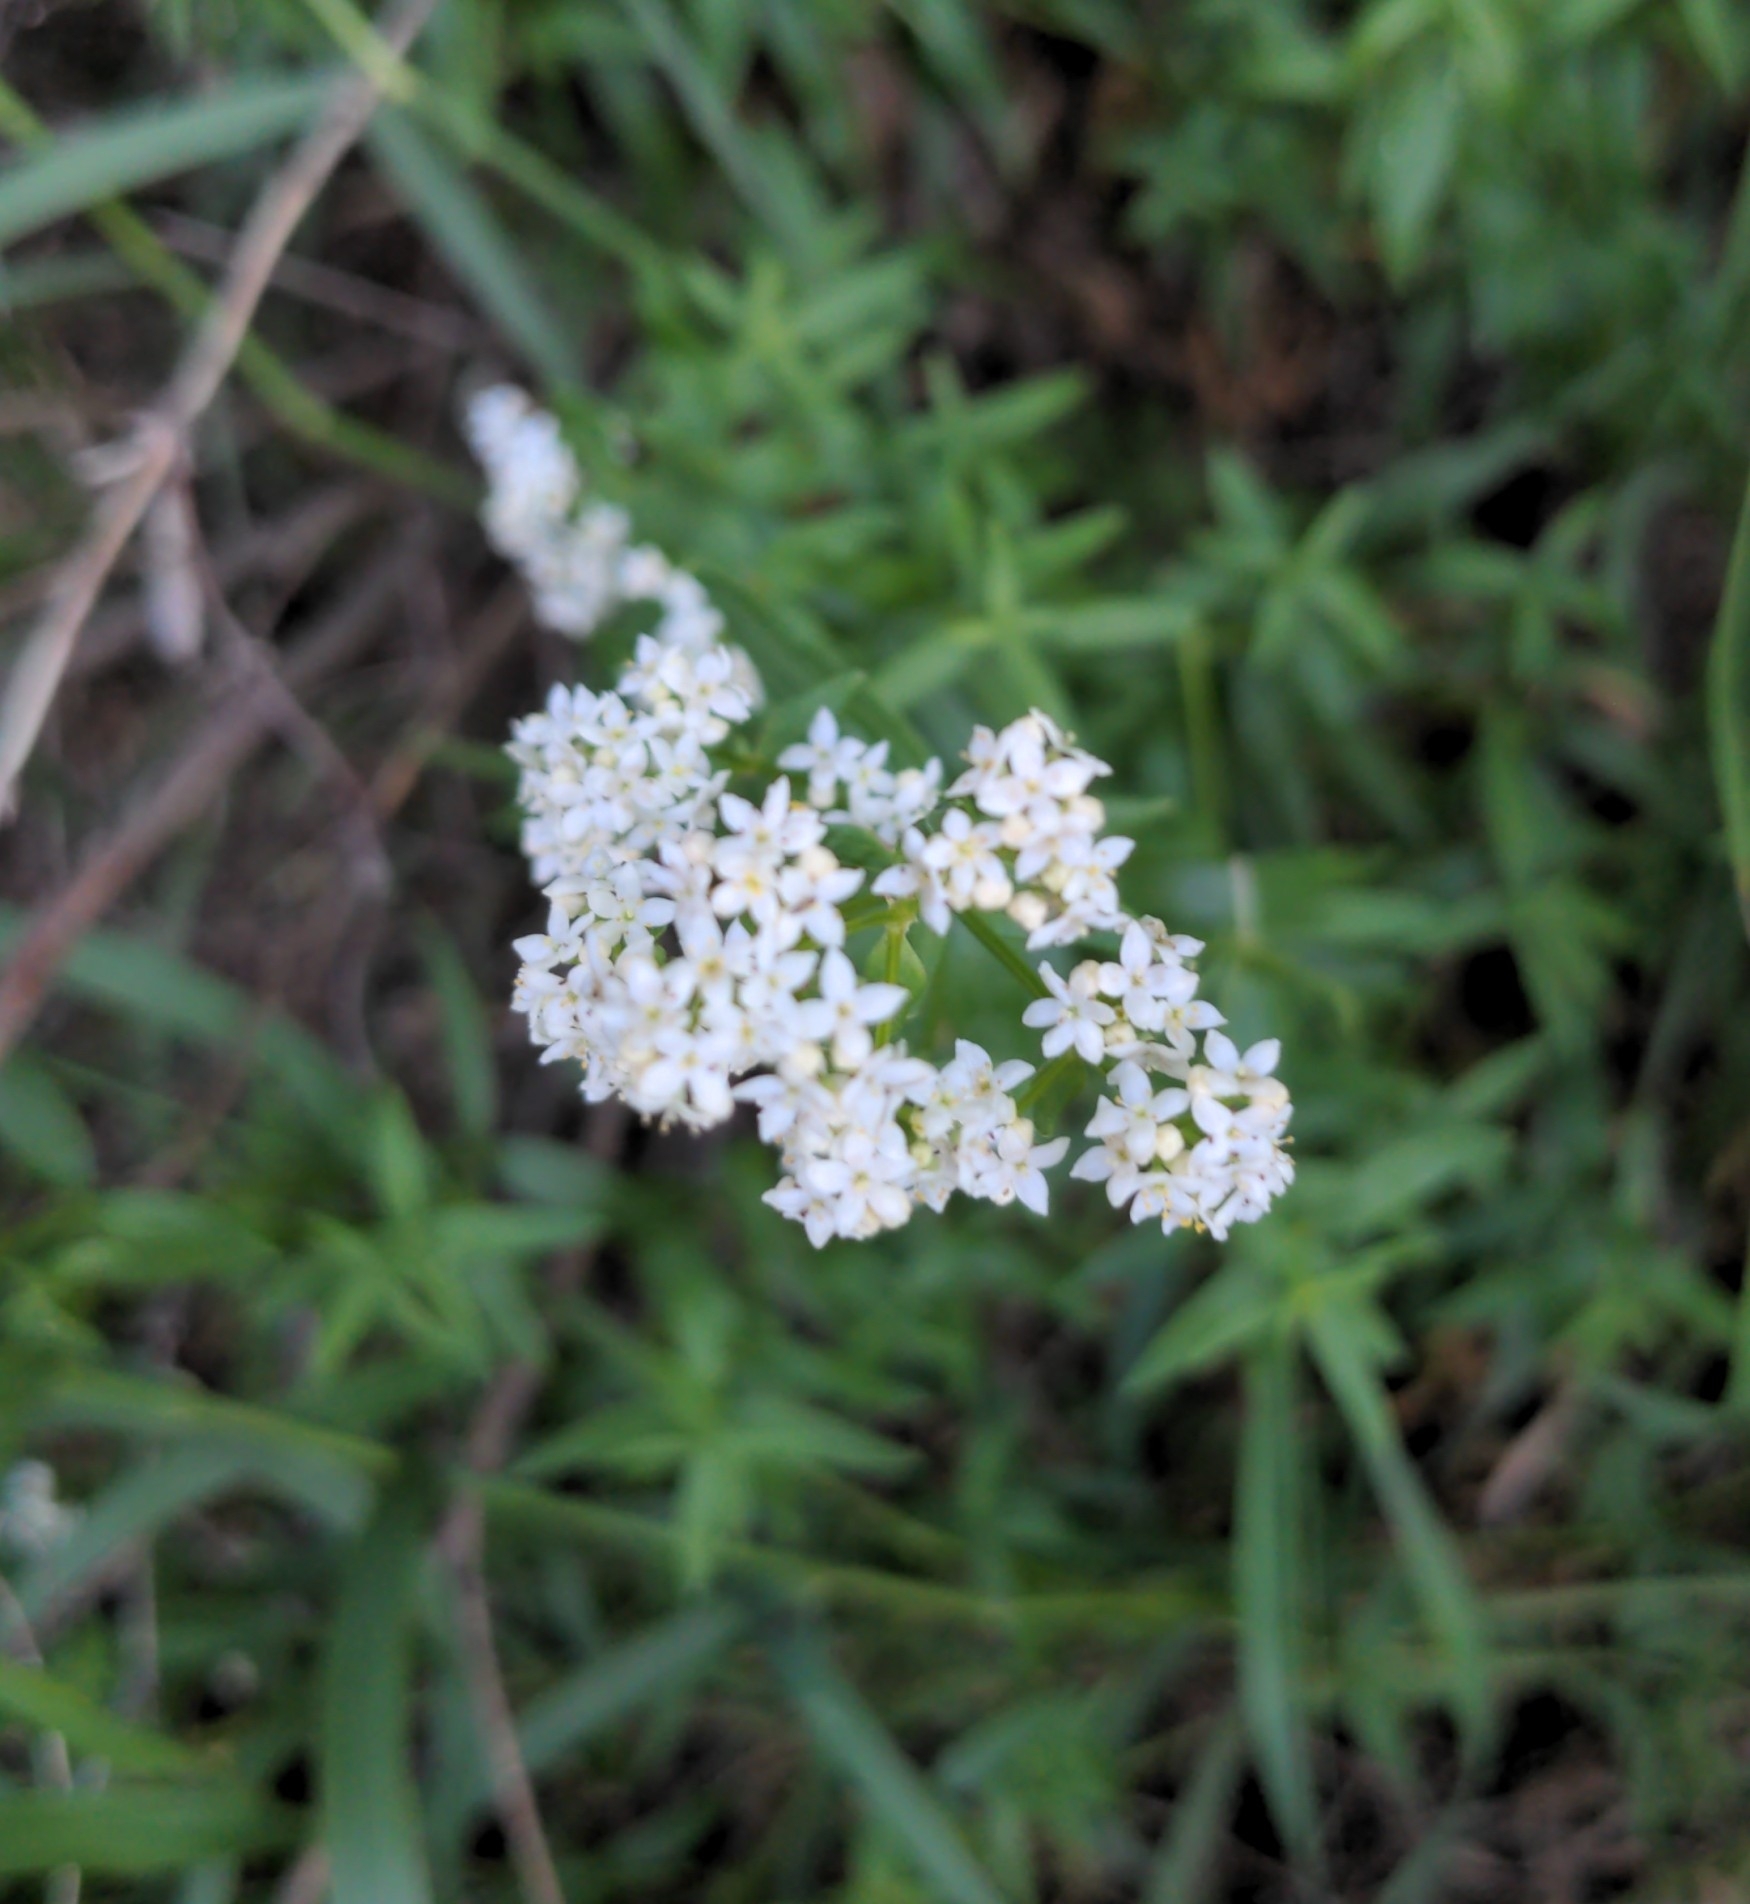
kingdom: Plantae
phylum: Tracheophyta
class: Magnoliopsida
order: Gentianales
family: Rubiaceae
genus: Galium
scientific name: Galium boreale
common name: Northern bedstraw
